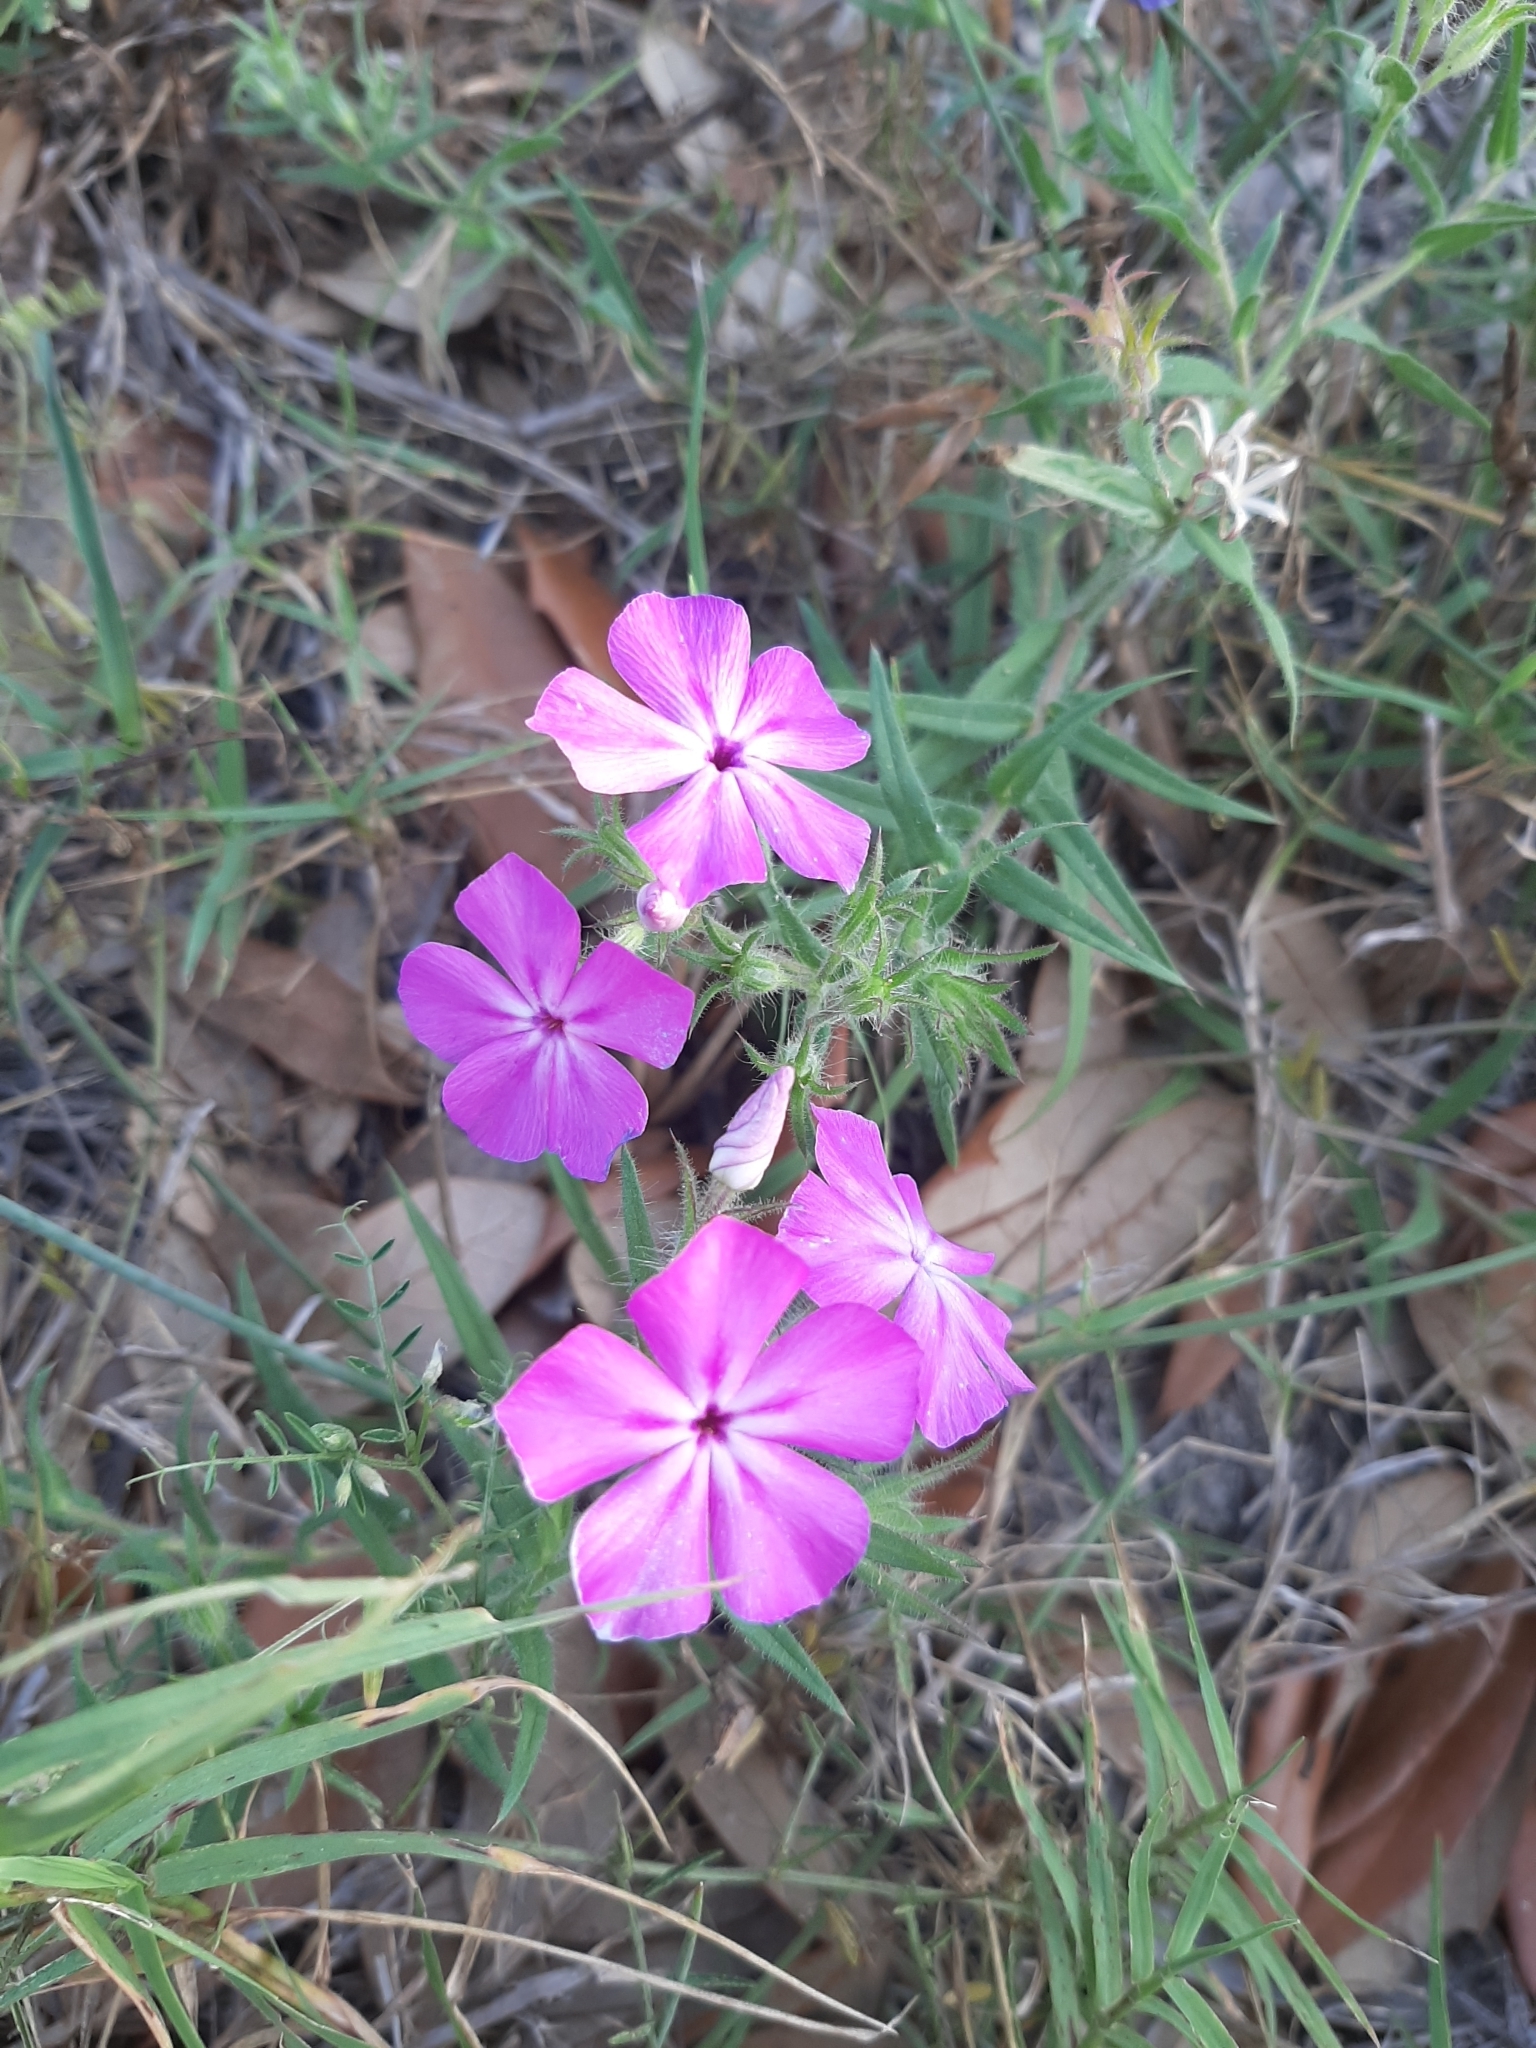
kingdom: Plantae
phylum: Tracheophyta
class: Magnoliopsida
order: Ericales
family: Polemoniaceae
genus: Phlox
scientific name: Phlox glabriflora
